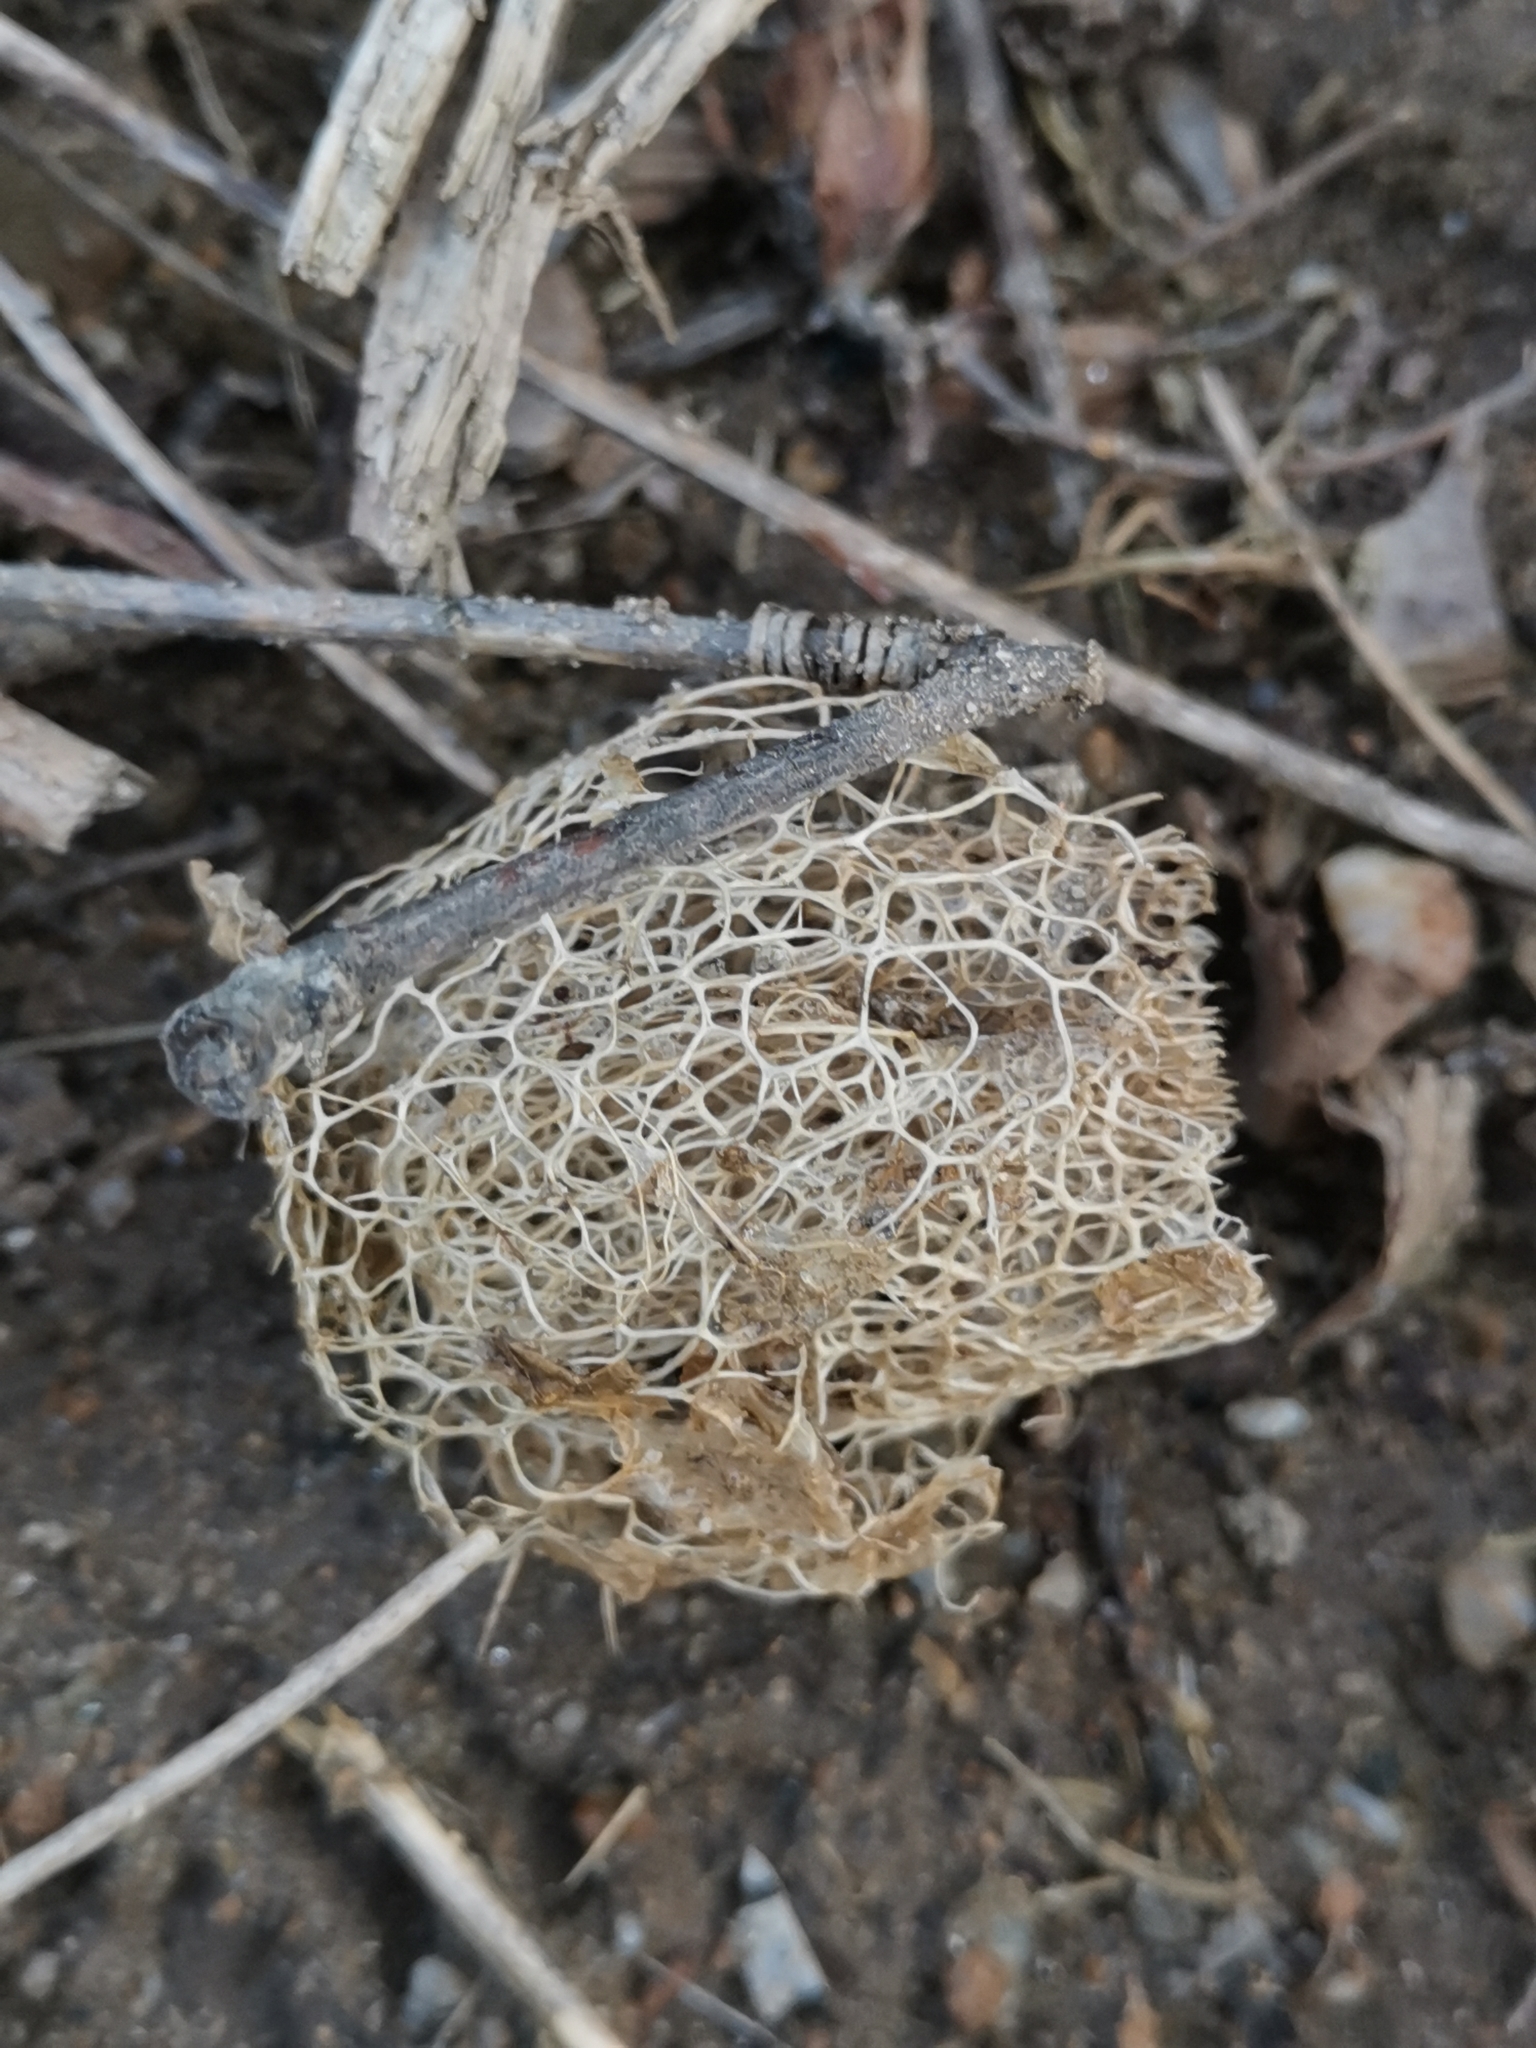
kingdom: Plantae
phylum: Tracheophyta
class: Magnoliopsida
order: Cucurbitales
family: Cucurbitaceae
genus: Echinocystis
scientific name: Echinocystis lobata
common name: Wild cucumber
